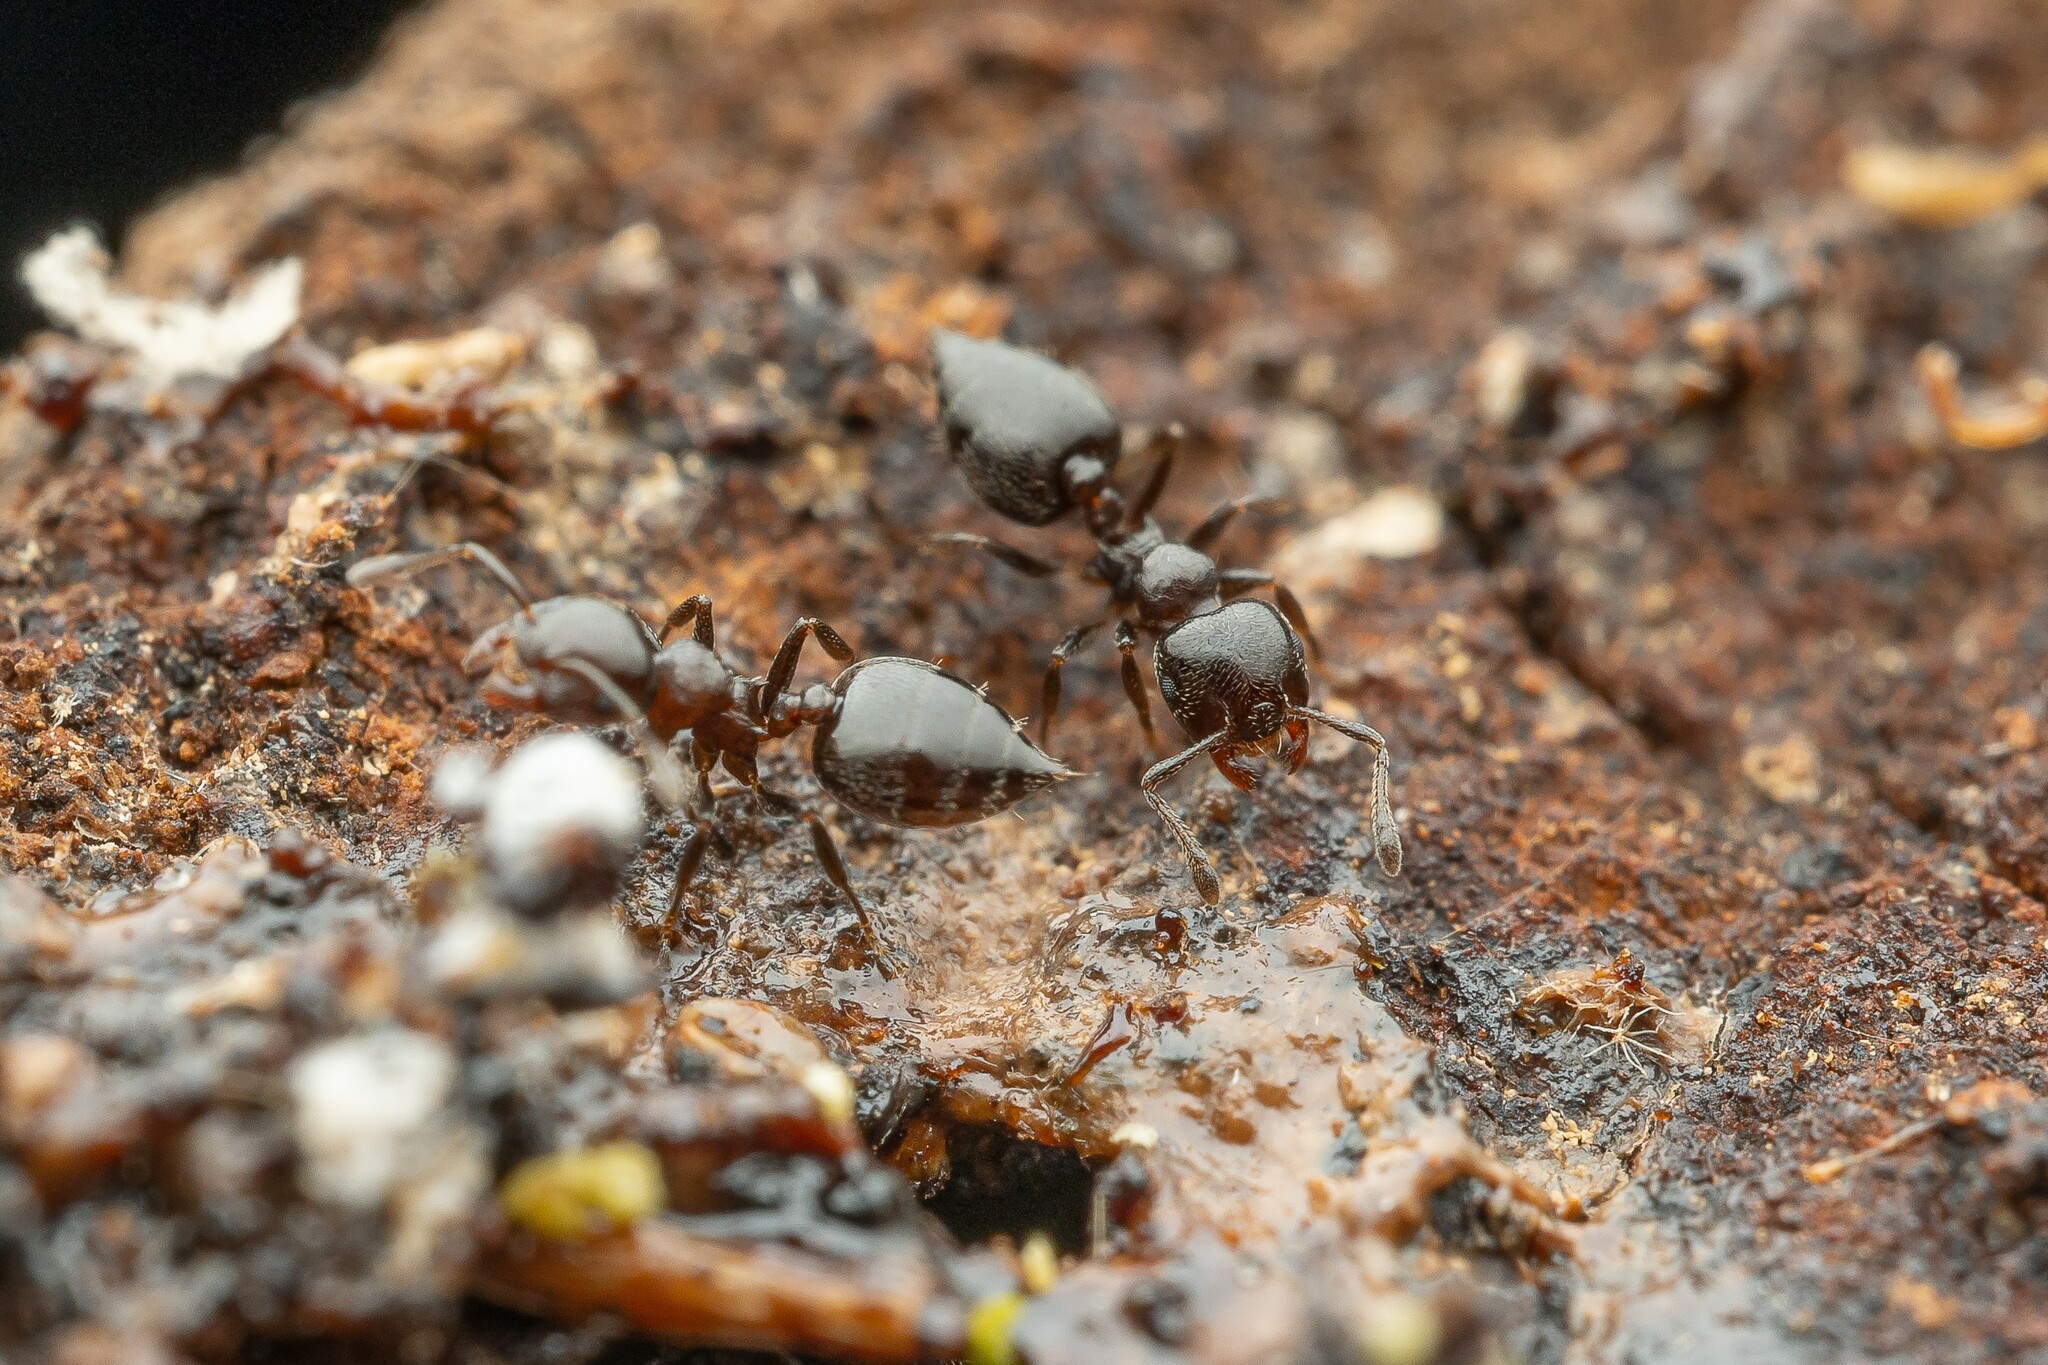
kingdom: Animalia
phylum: Arthropoda
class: Insecta
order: Hymenoptera
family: Formicidae
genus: Crematogaster
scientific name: Crematogaster torosa
